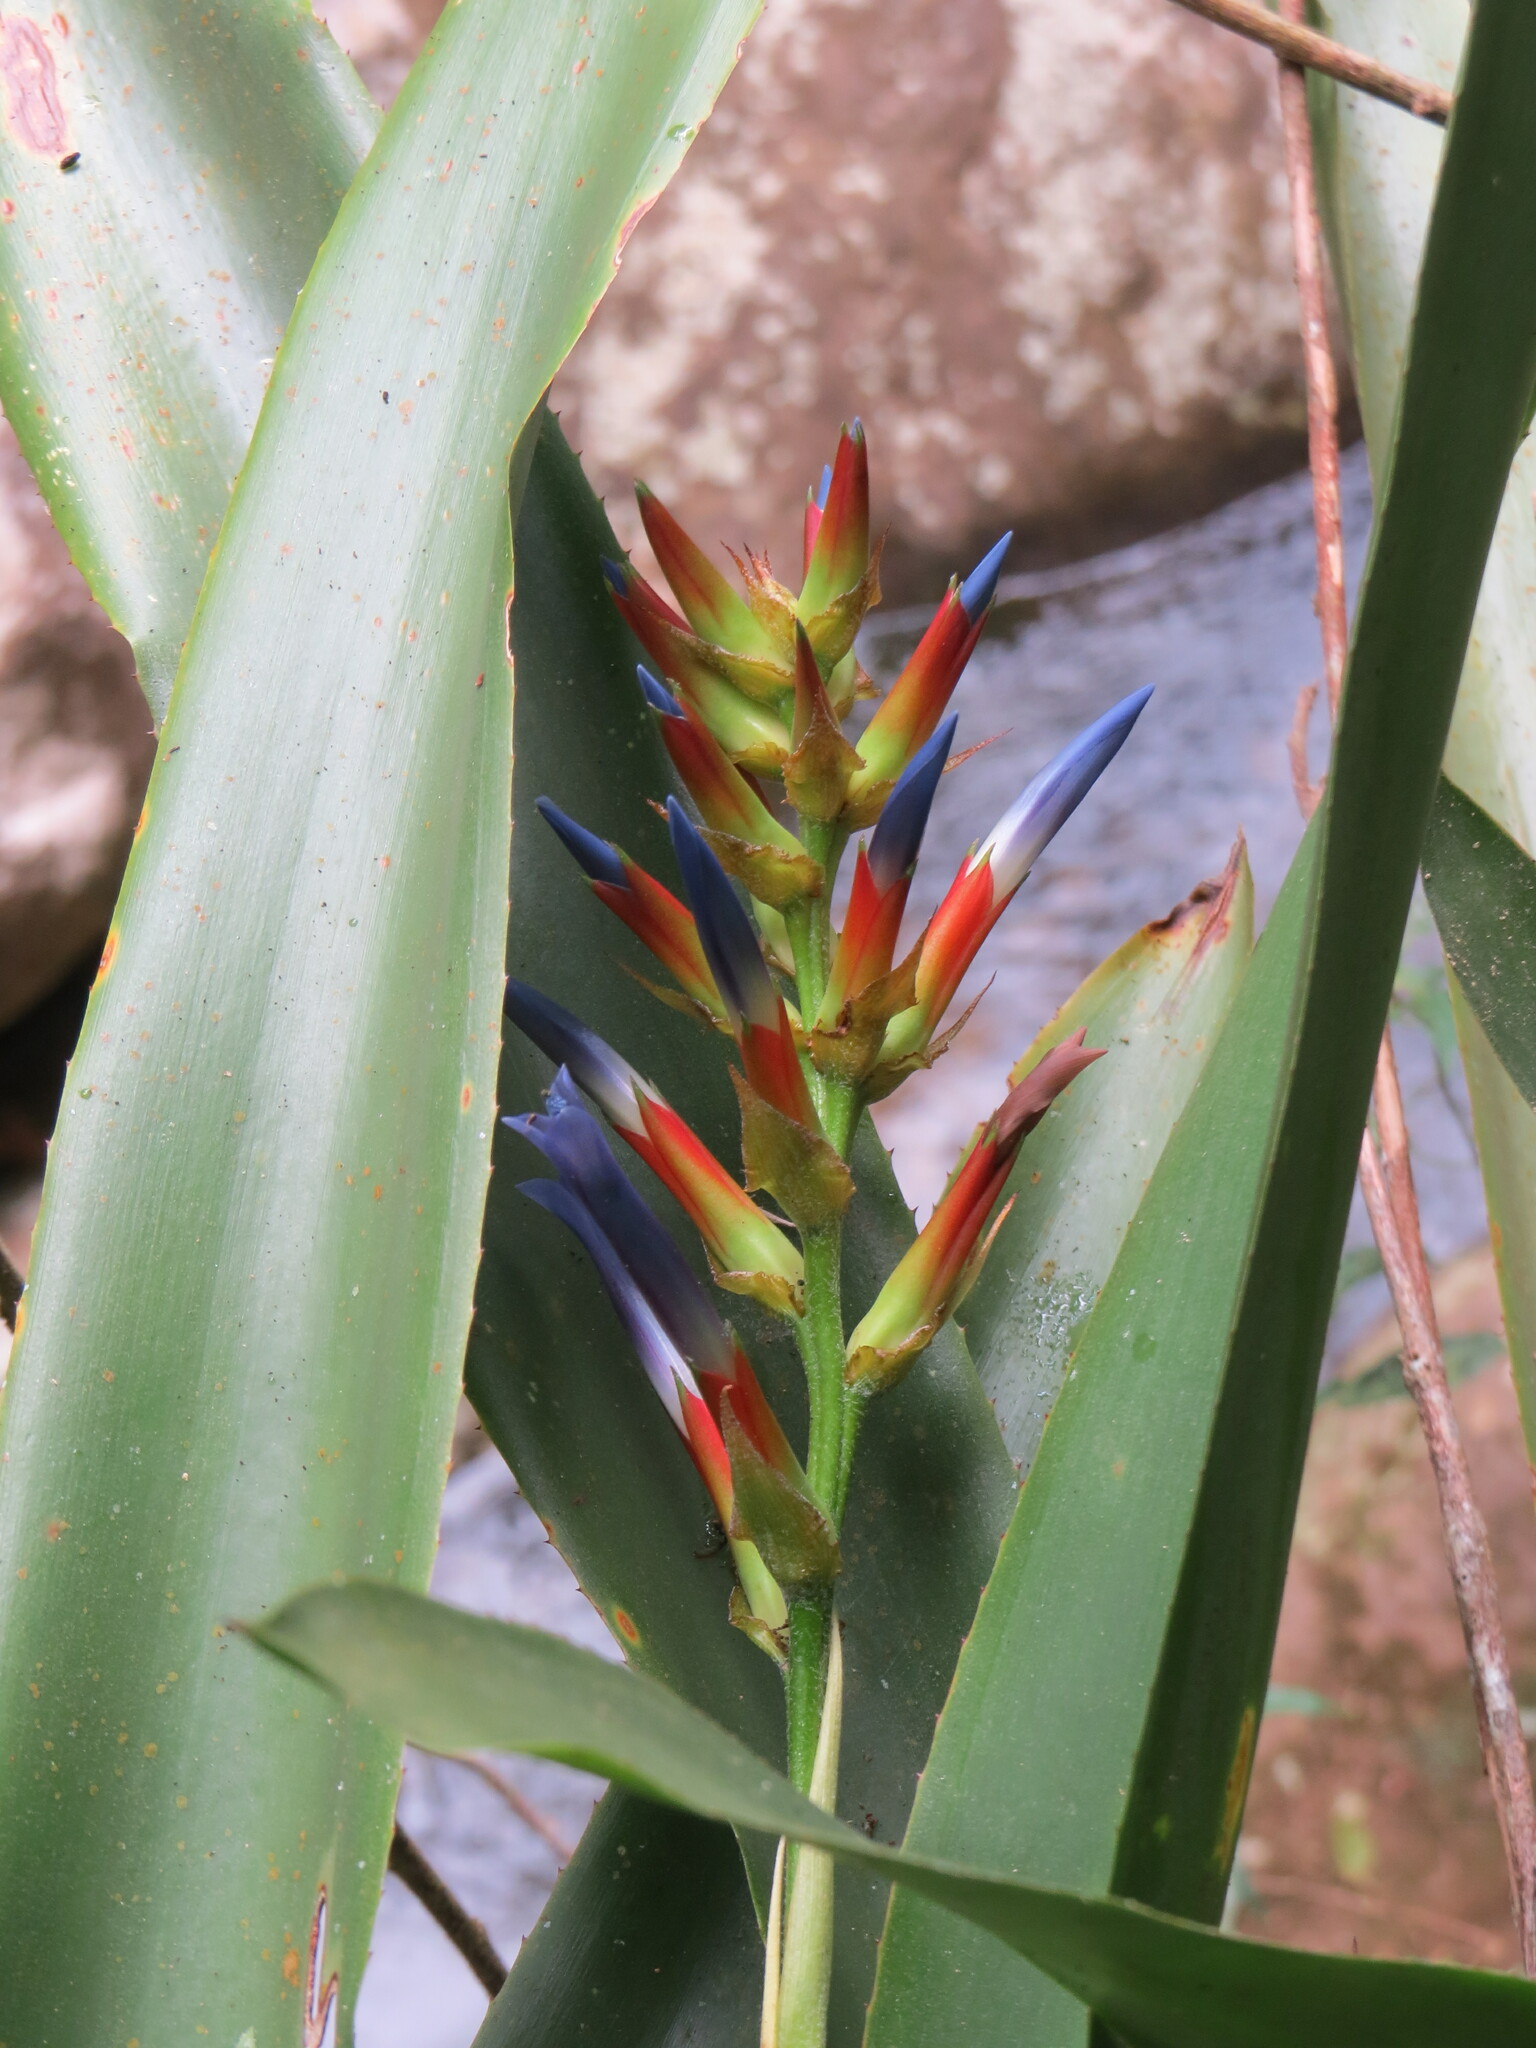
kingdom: Plantae
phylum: Tracheophyta
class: Liliopsida
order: Poales
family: Bromeliaceae
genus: Quesnelia
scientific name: Quesnelia augustocoburgi
